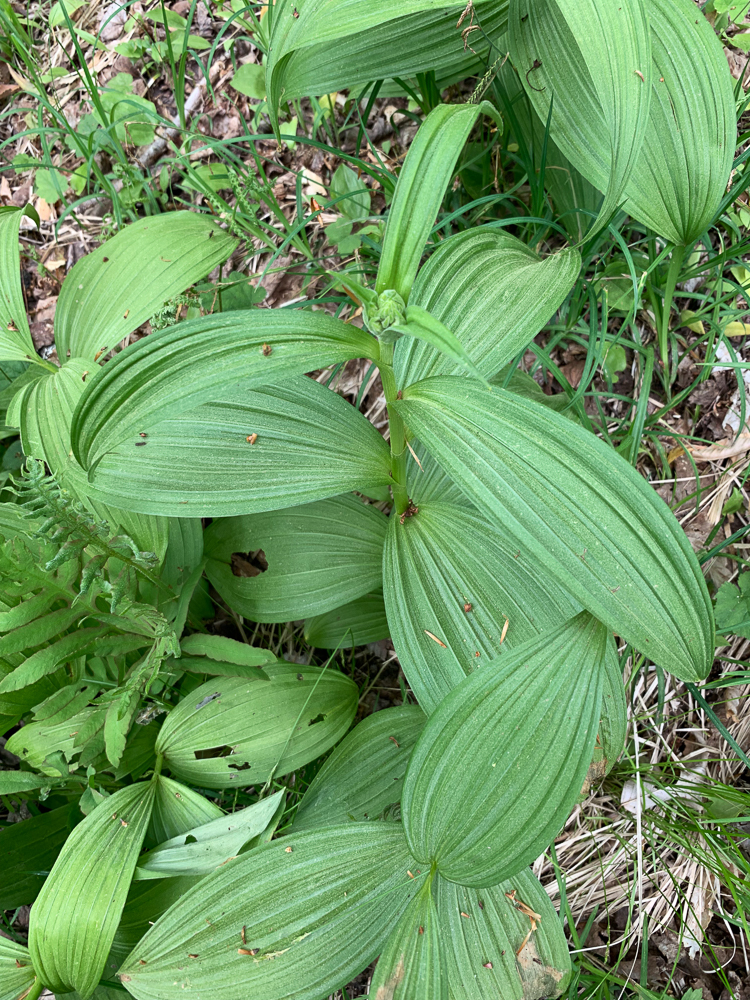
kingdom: Plantae
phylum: Tracheophyta
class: Liliopsida
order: Liliales
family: Melanthiaceae
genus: Veratrum
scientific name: Veratrum viride
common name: American false hellebore
